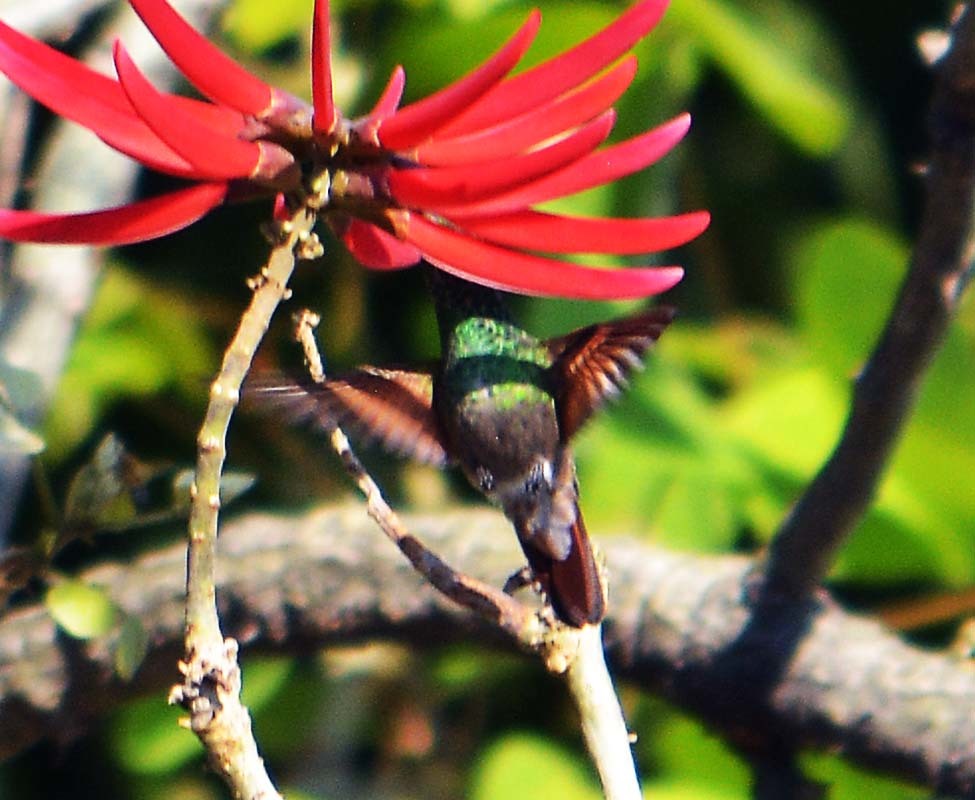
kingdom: Animalia
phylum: Chordata
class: Aves
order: Apodiformes
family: Trochilidae
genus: Saucerottia
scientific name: Saucerottia beryllina
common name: Berylline hummingbird
